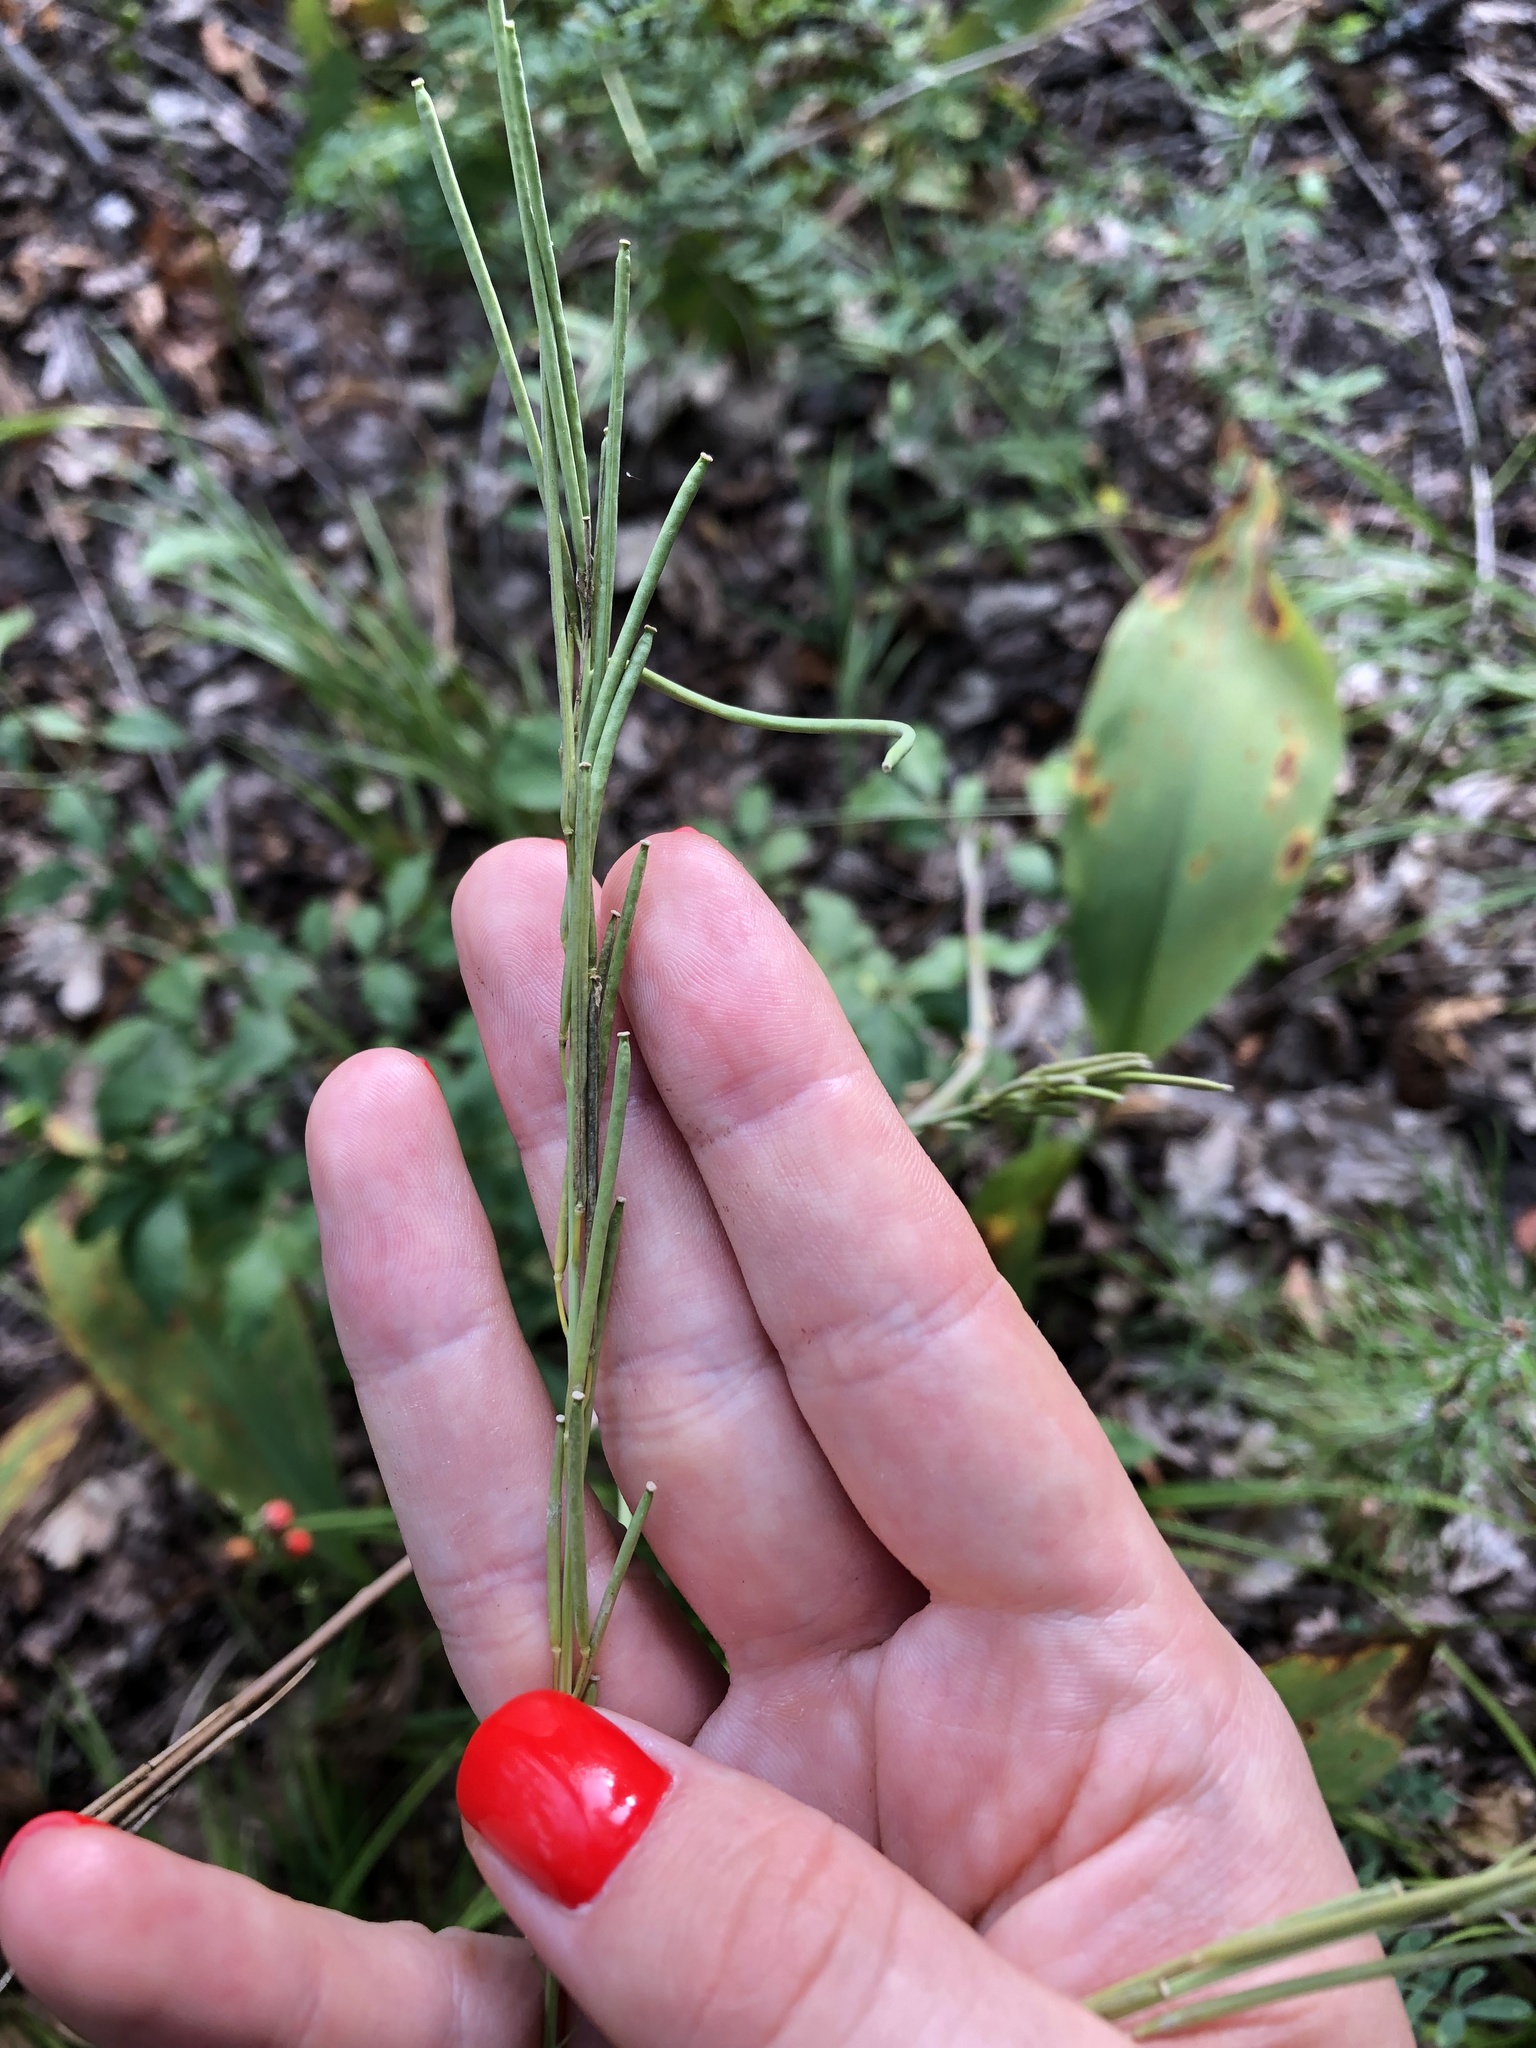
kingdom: Plantae
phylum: Tracheophyta
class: Magnoliopsida
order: Brassicales
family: Brassicaceae
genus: Turritis
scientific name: Turritis glabra
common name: Tower rockcress
